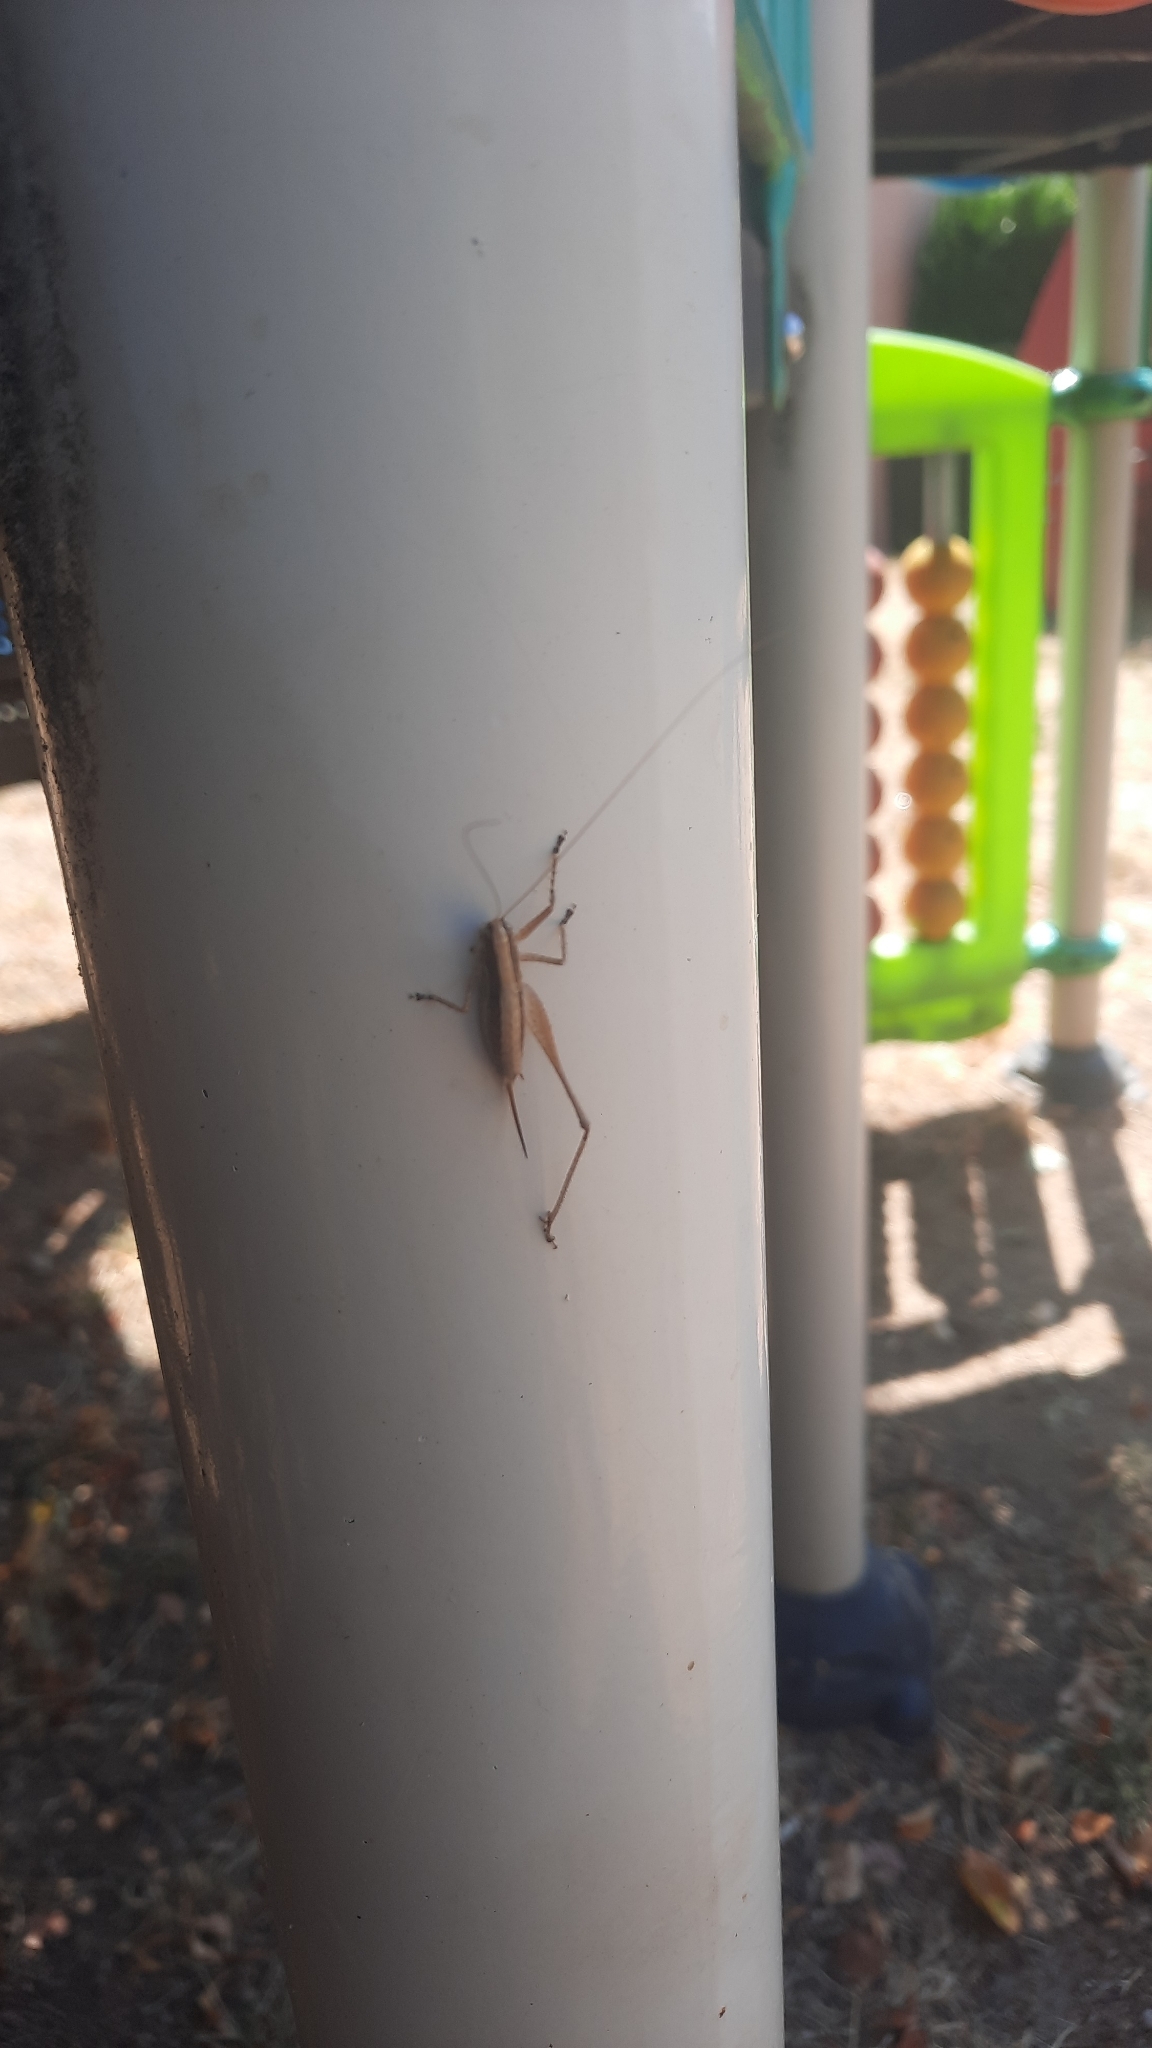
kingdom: Animalia
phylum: Arthropoda
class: Insecta
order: Orthoptera
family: Tettigoniidae
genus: Yersinella
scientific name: Yersinella raymondii
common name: Raymond's bush-cricket
